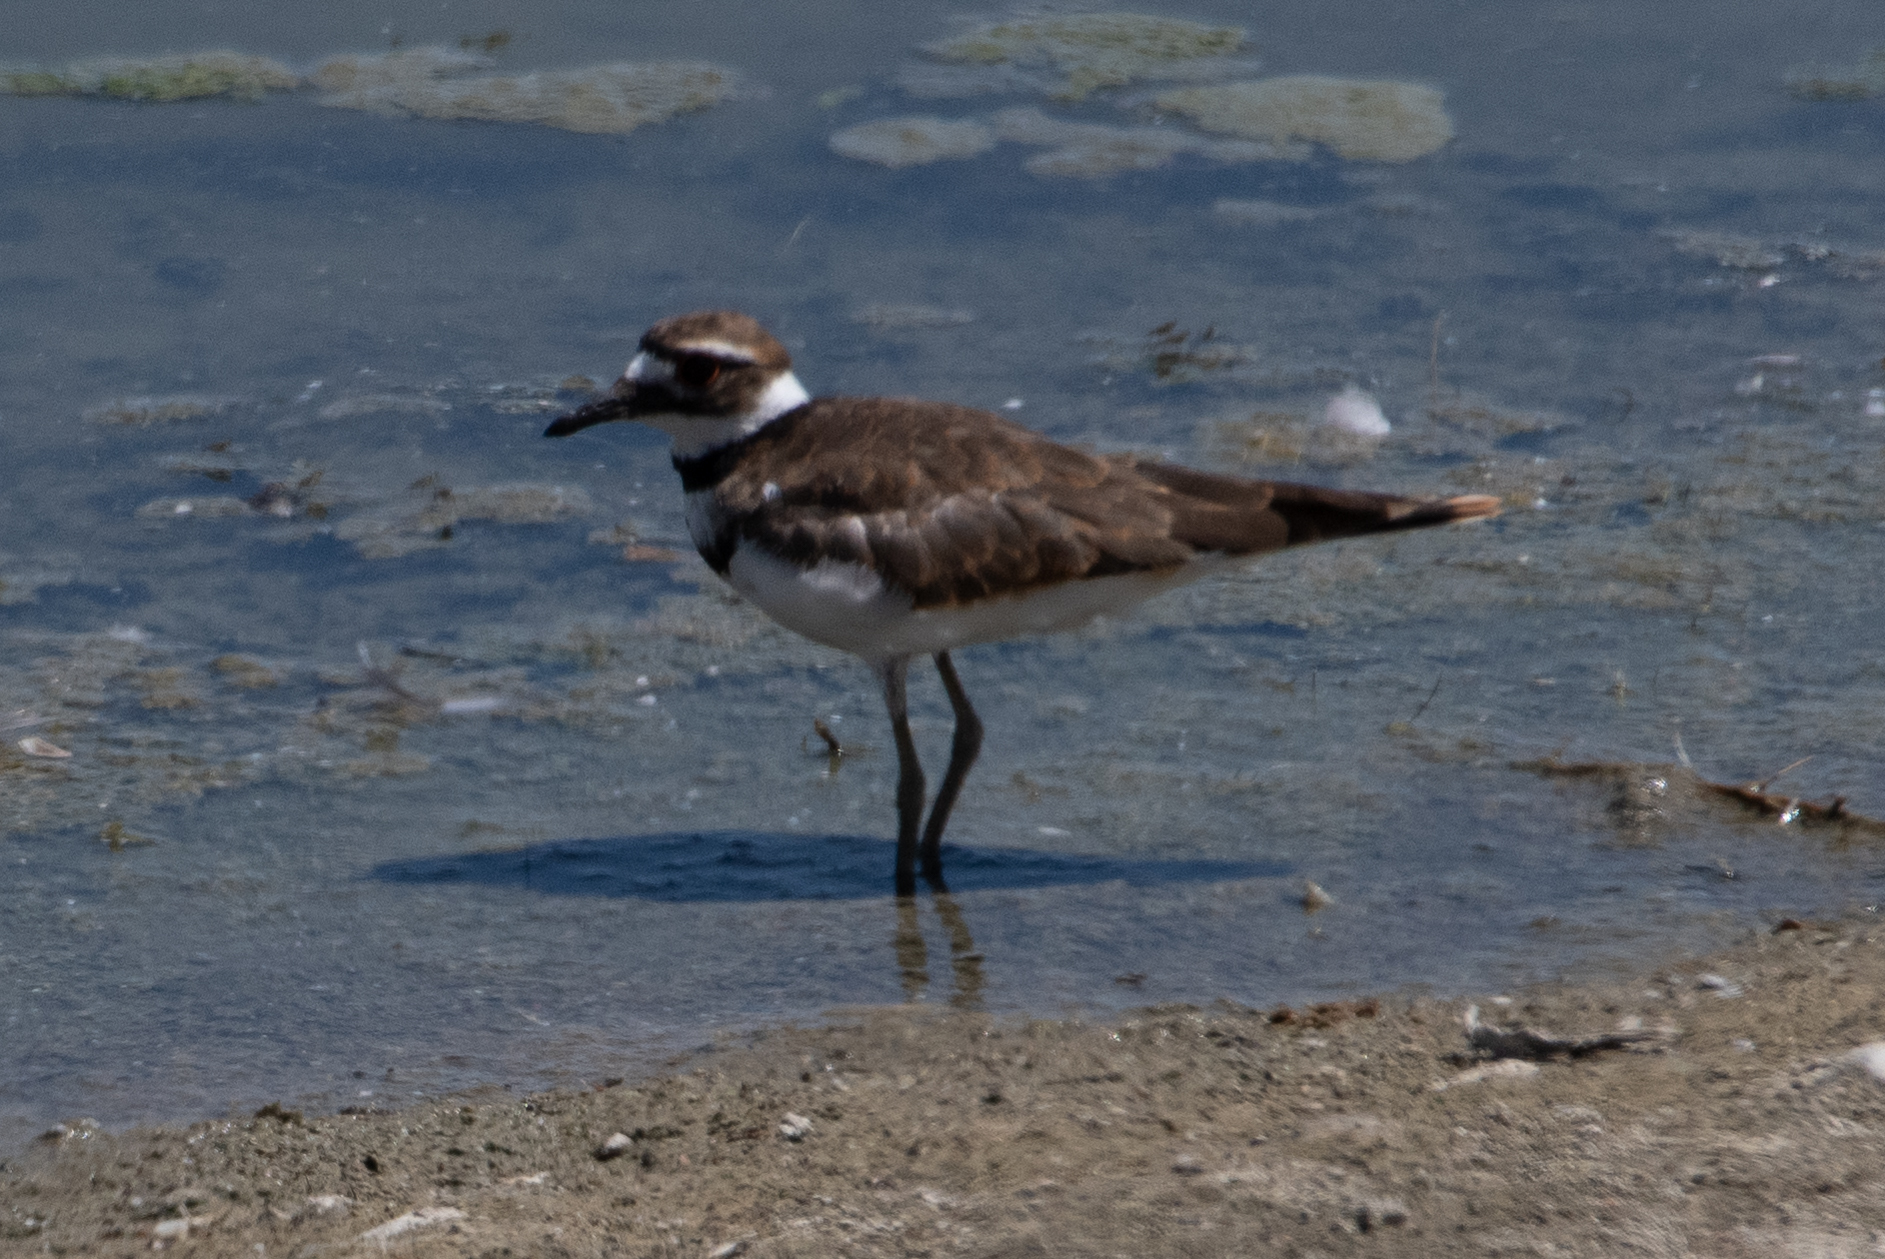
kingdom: Animalia
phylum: Chordata
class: Aves
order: Charadriiformes
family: Charadriidae
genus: Charadrius
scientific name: Charadrius vociferus
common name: Killdeer
